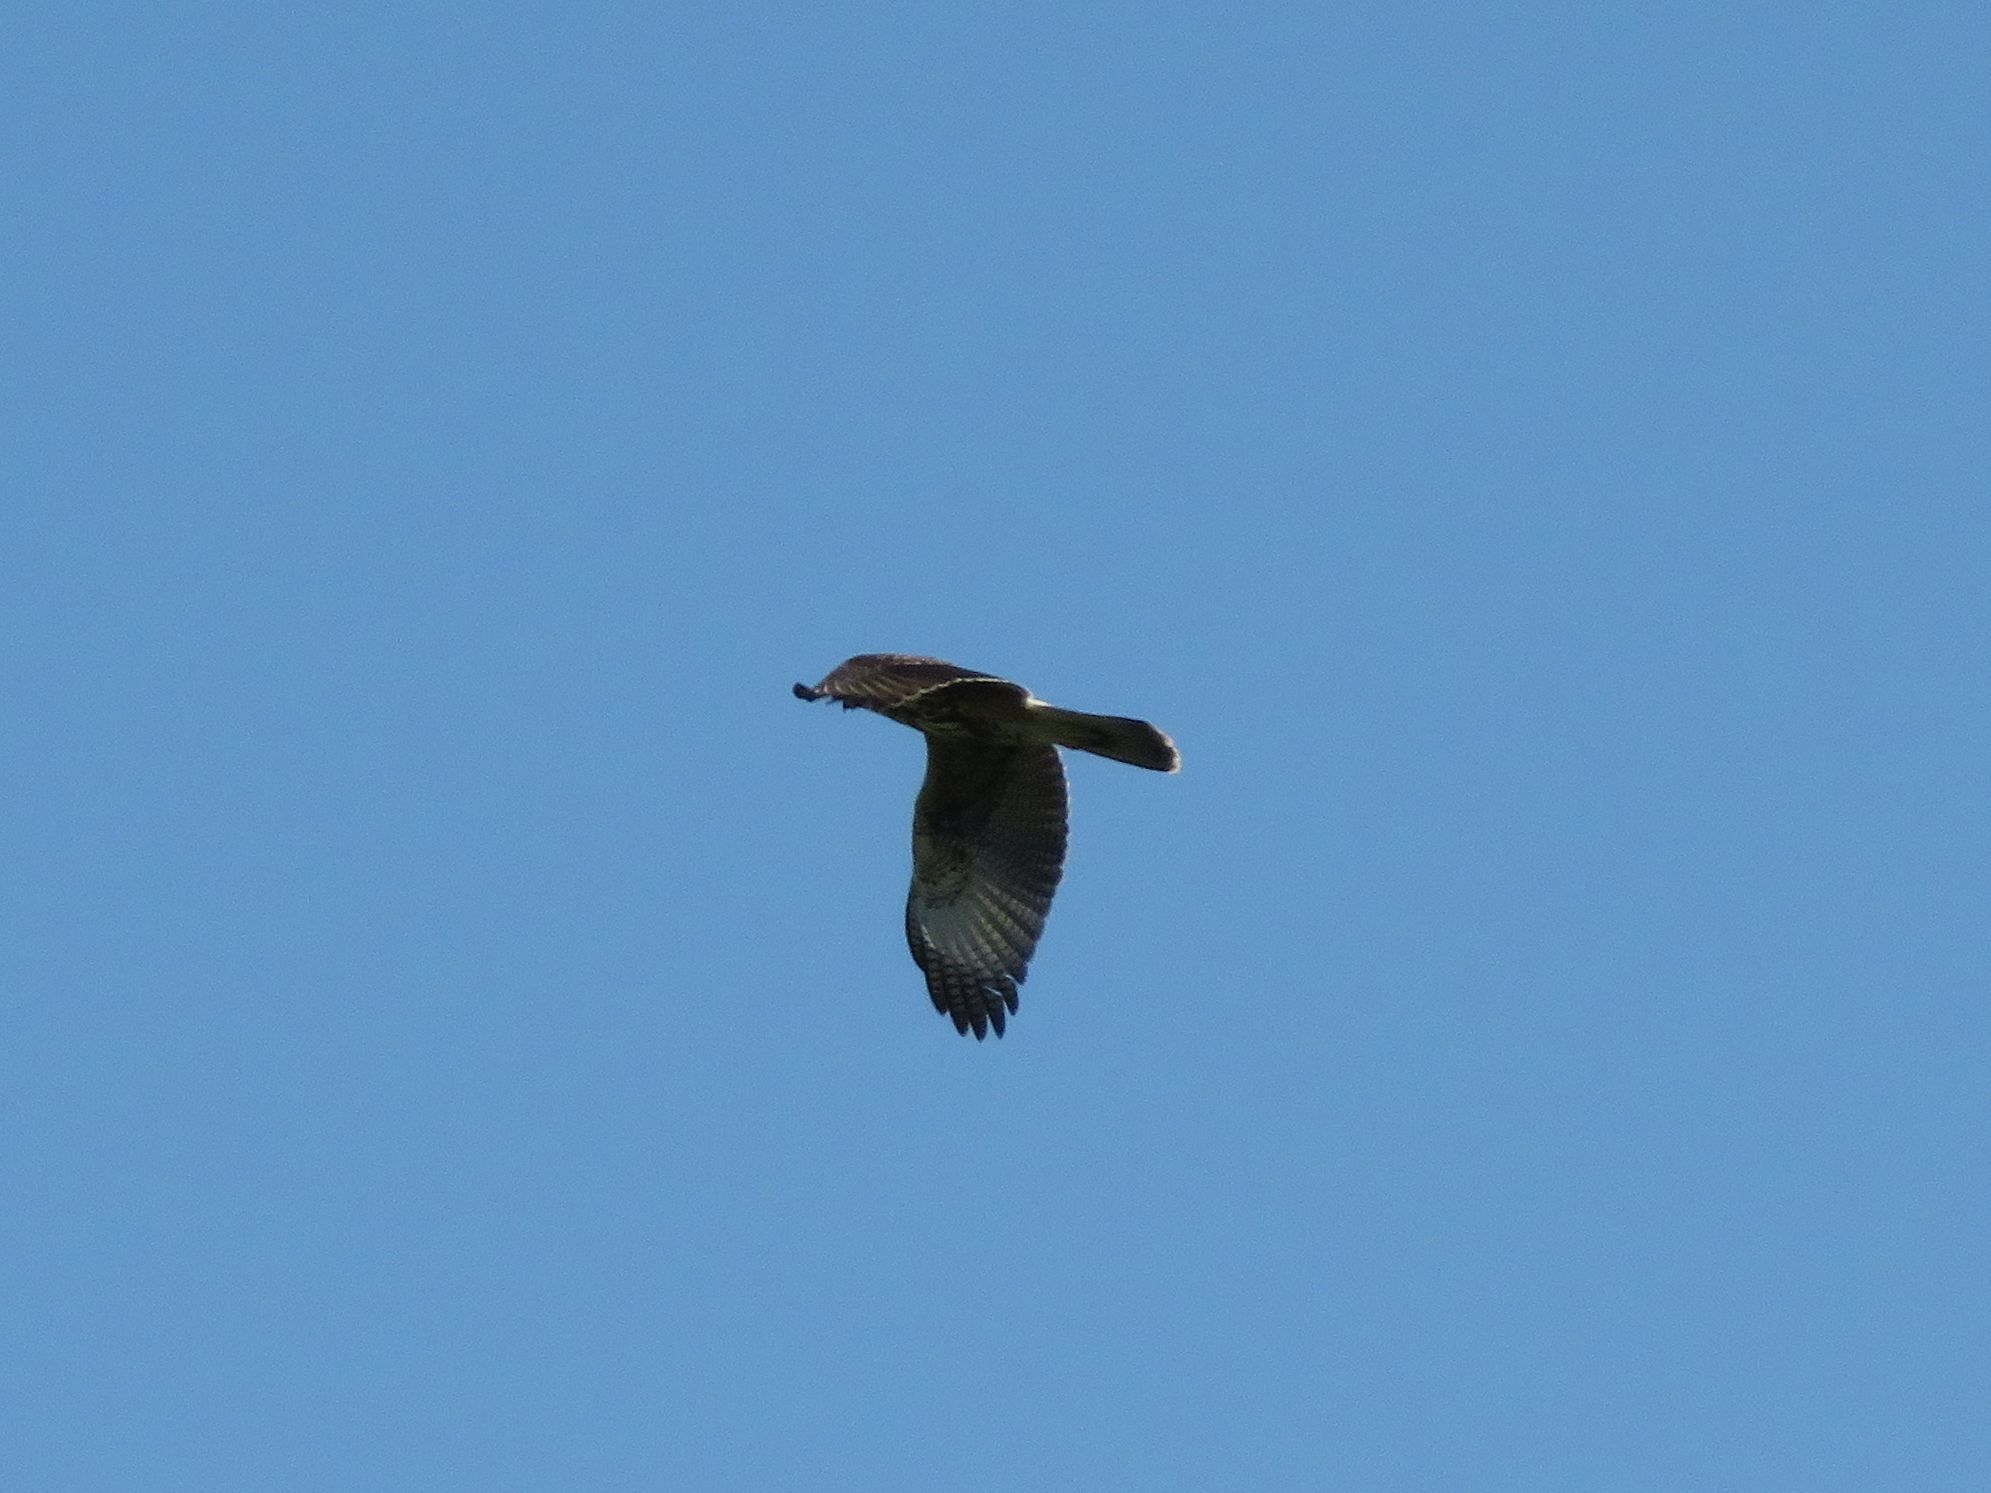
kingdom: Animalia
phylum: Chordata
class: Aves
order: Accipitriformes
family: Accipitridae
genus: Parabuteo
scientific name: Parabuteo unicinctus
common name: Harris's hawk
